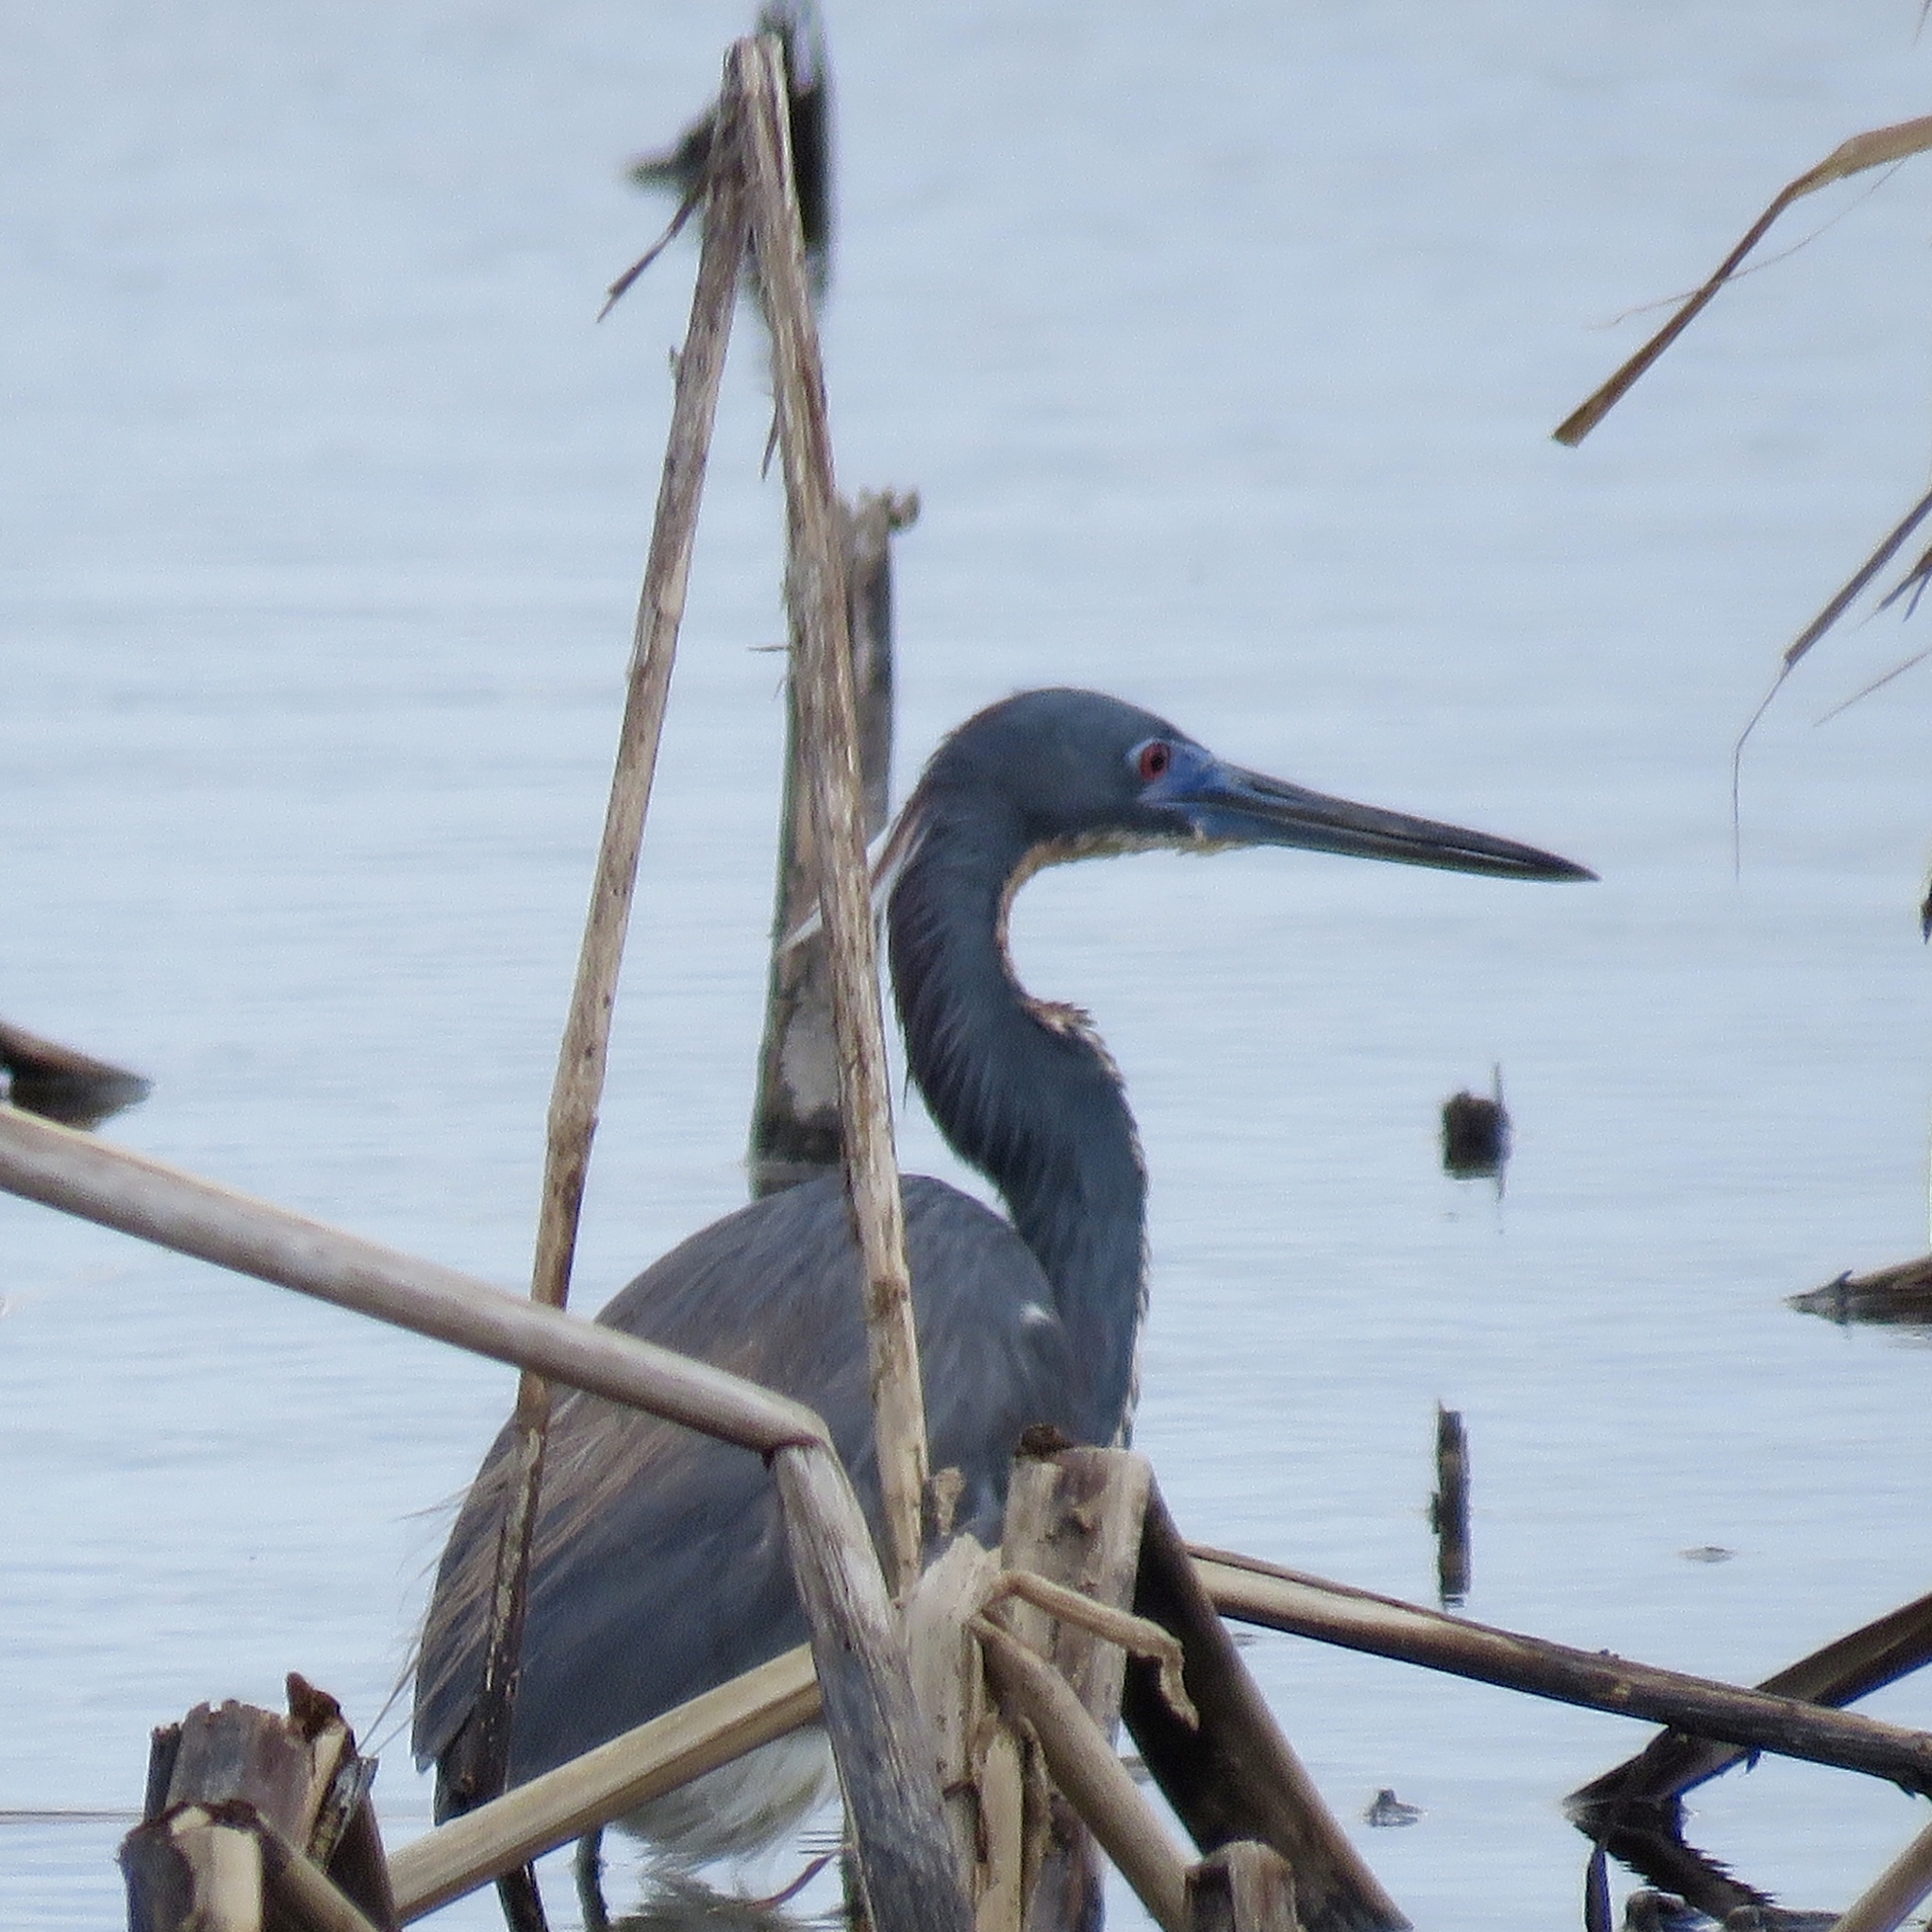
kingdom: Animalia
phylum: Chordata
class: Aves
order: Pelecaniformes
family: Ardeidae
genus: Egretta
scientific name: Egretta tricolor
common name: Tricolored heron
